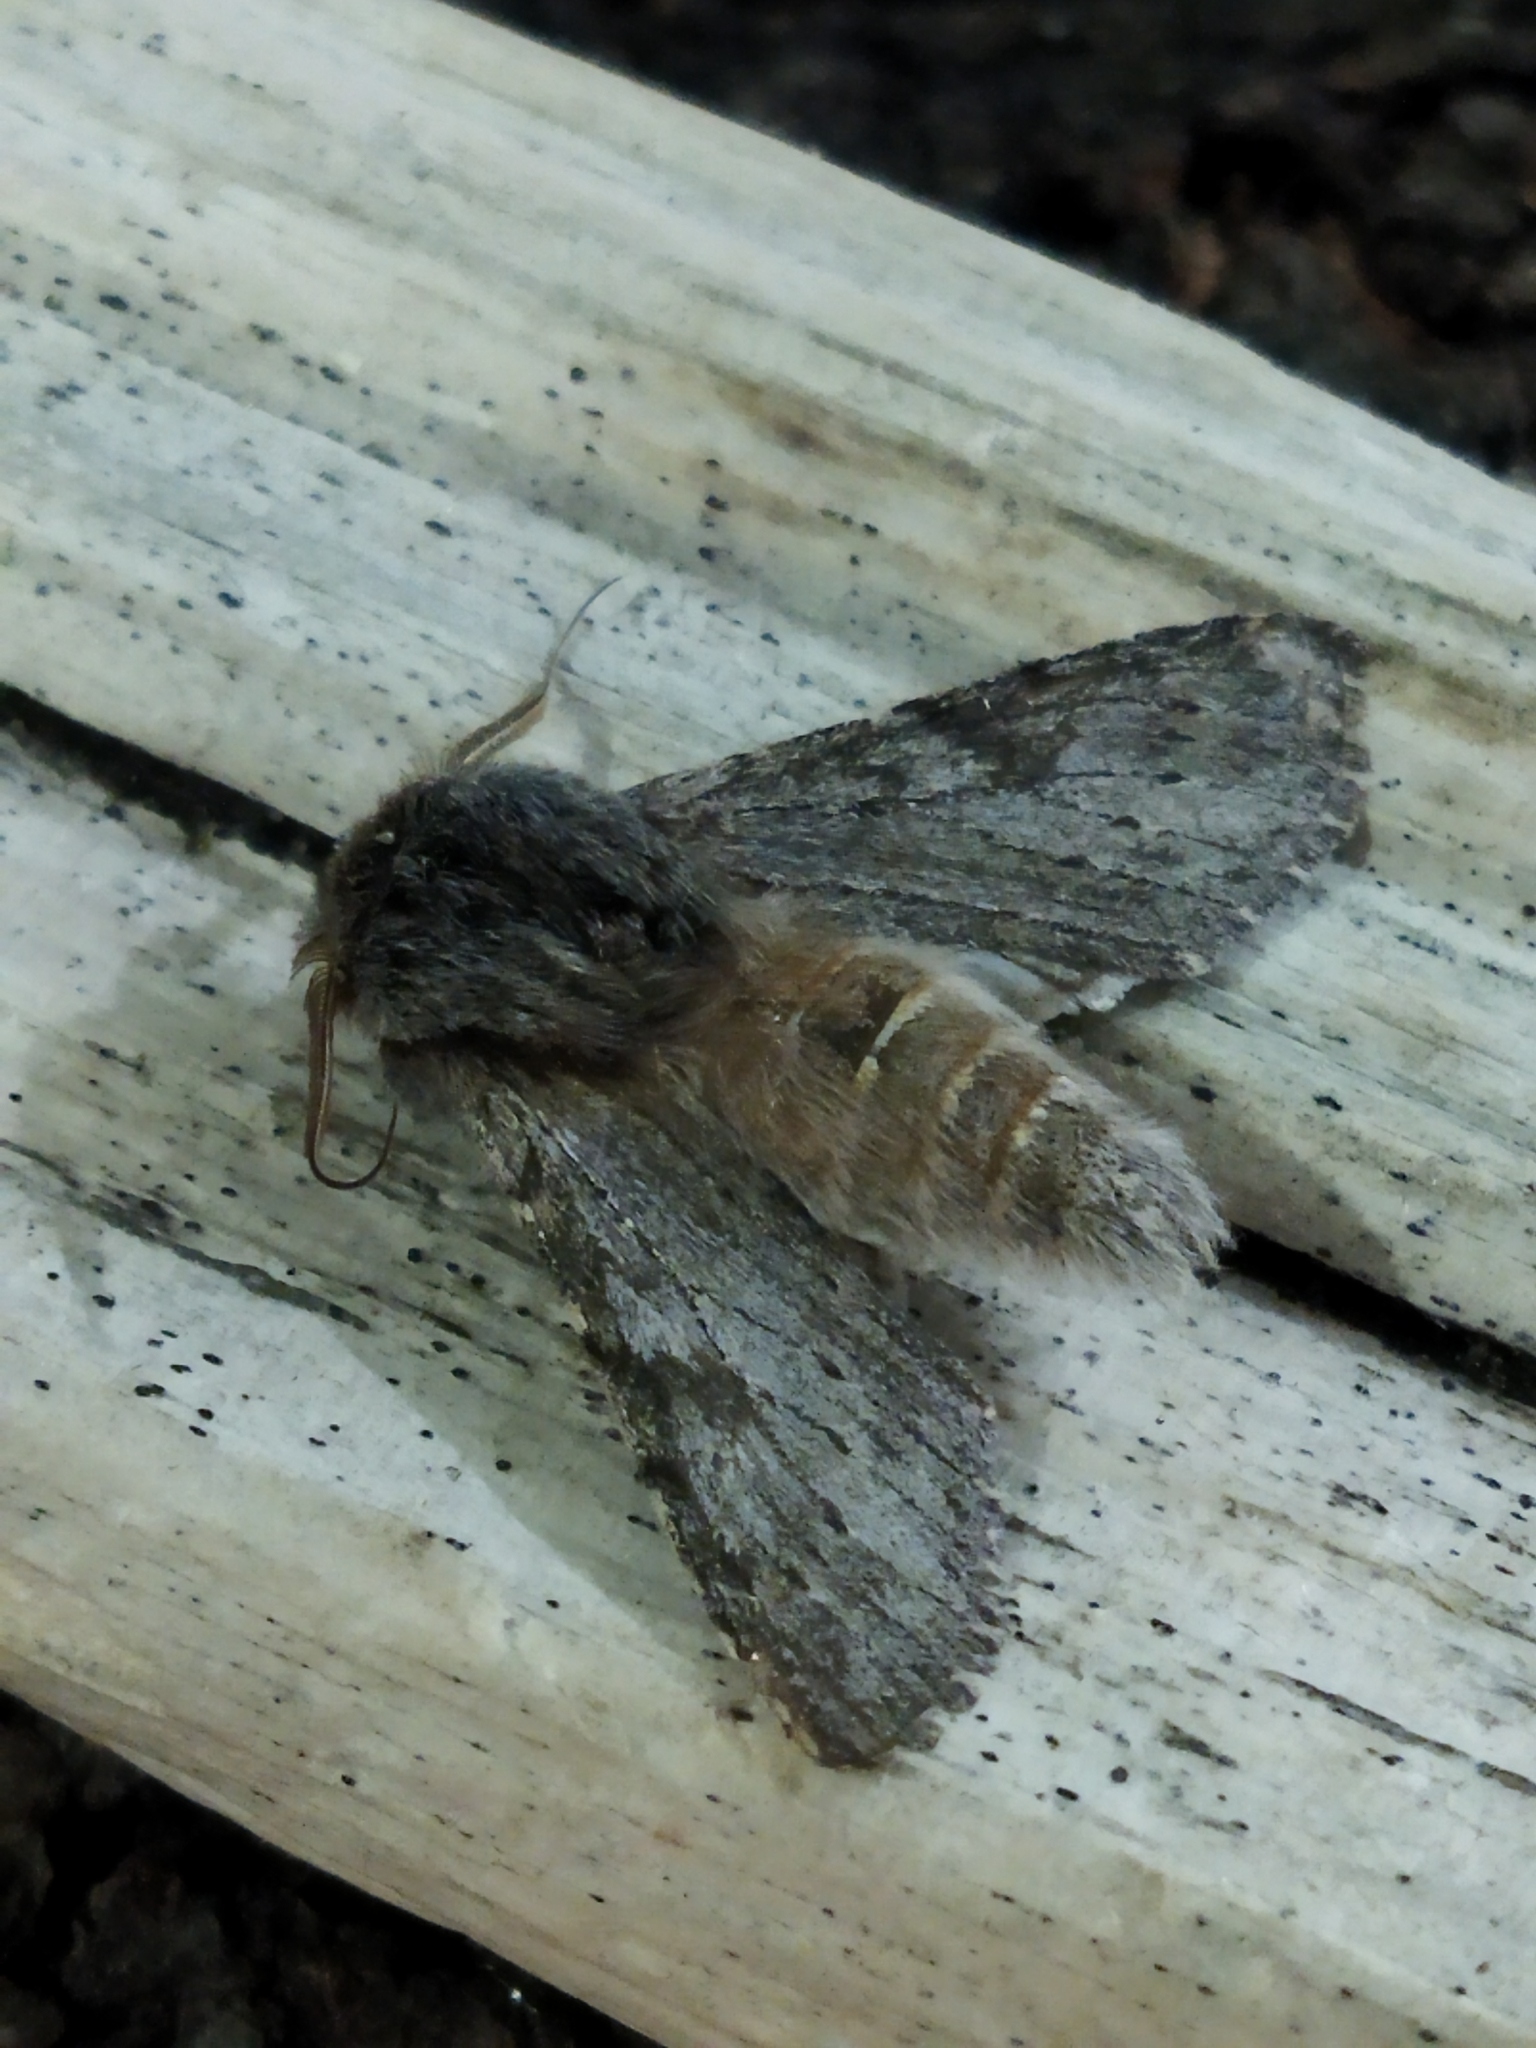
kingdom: Animalia
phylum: Arthropoda
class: Insecta
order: Lepidoptera
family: Notodontidae
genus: Dicranura
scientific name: Dicranura ulmi
